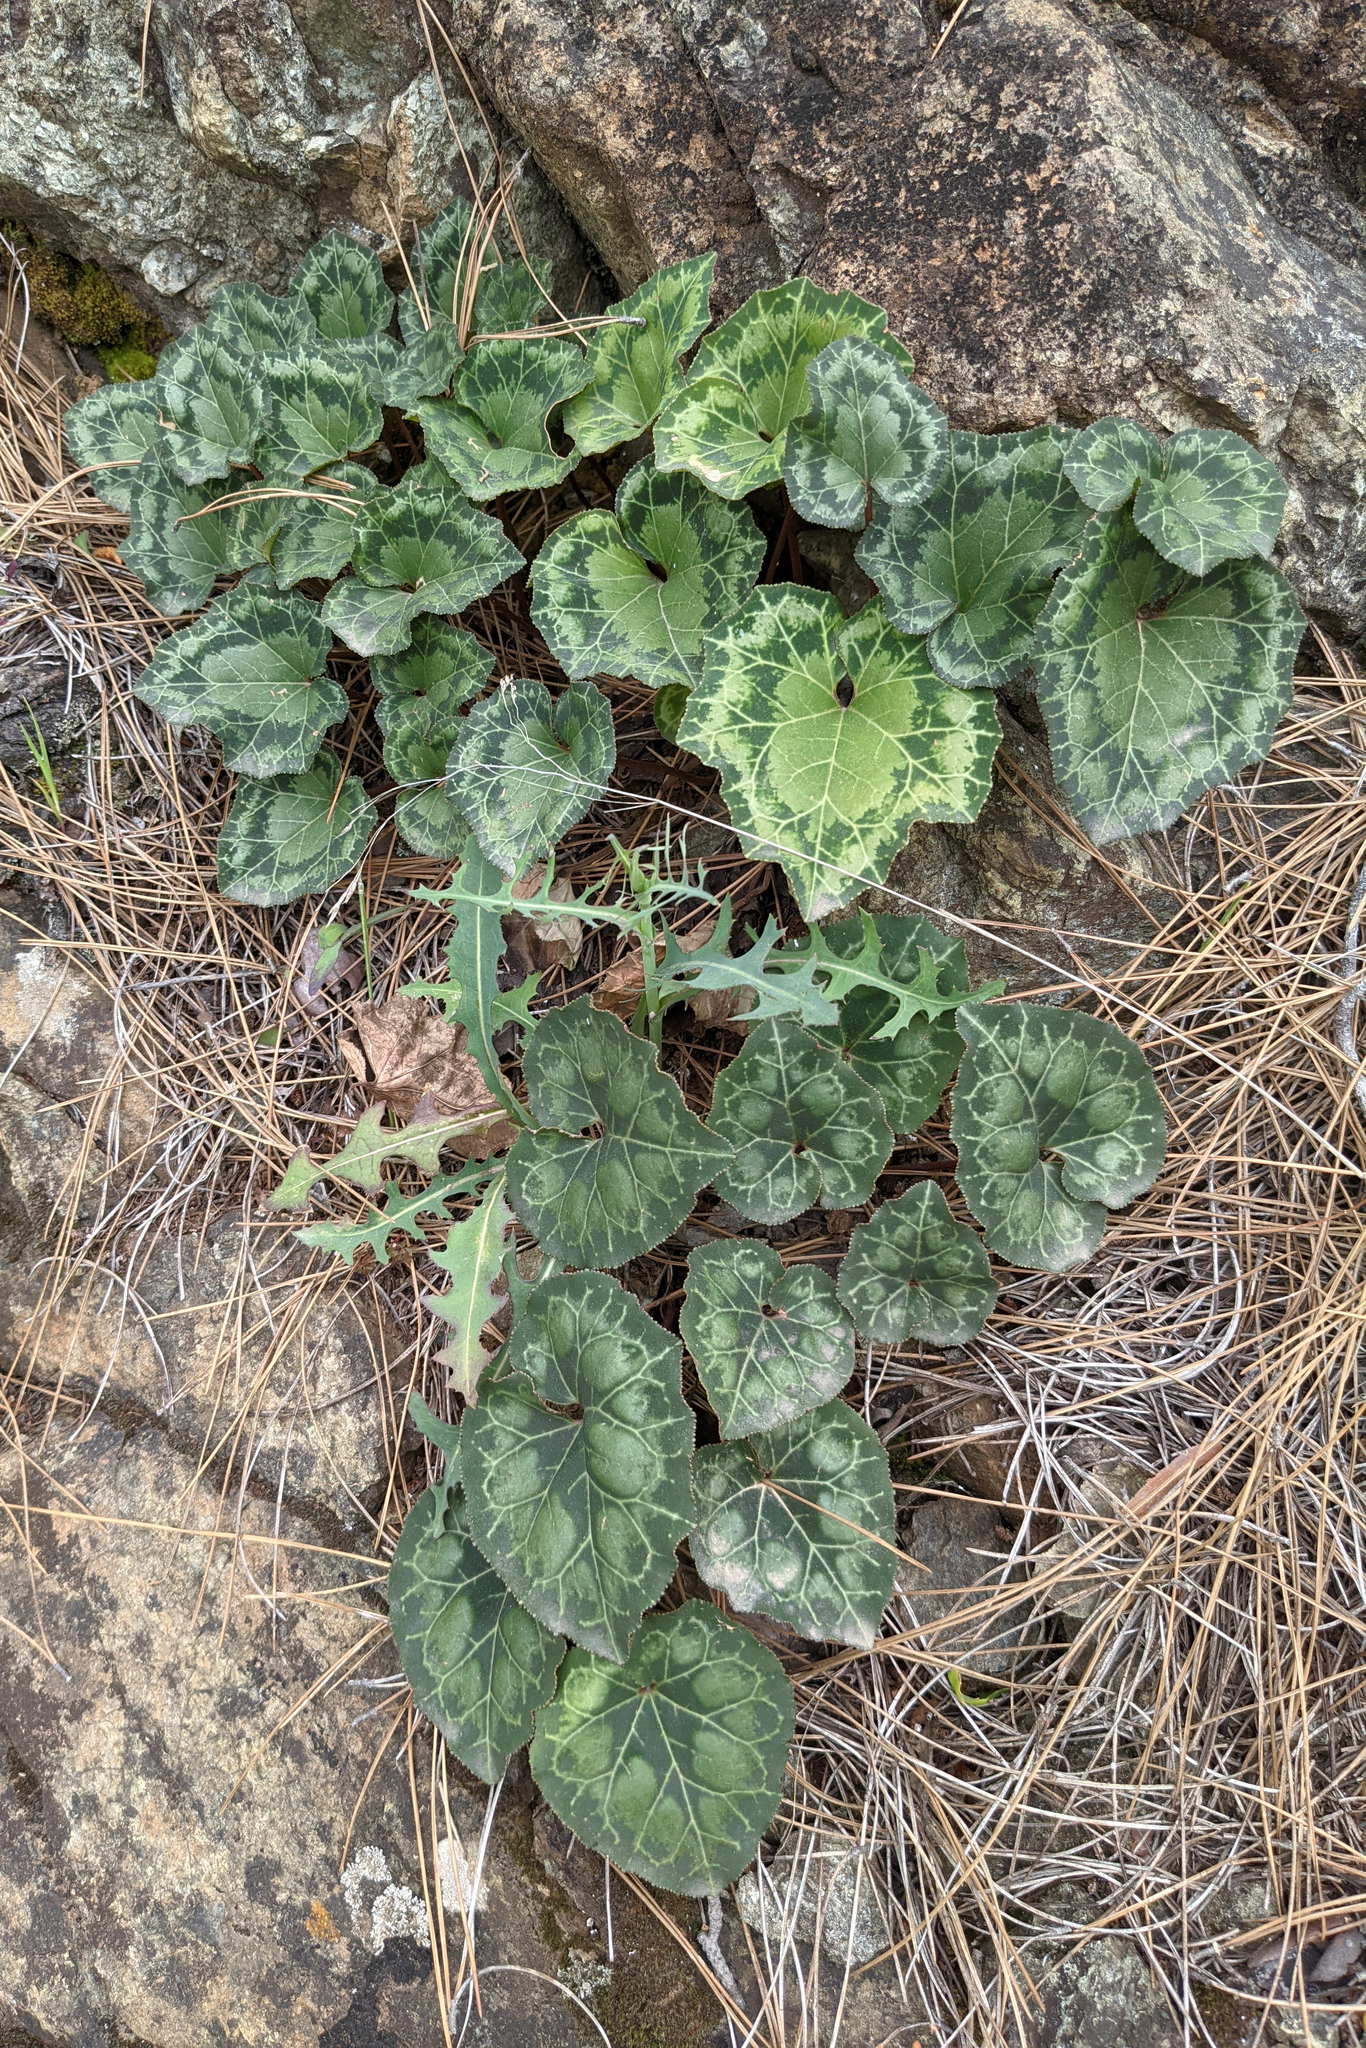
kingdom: Plantae
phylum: Tracheophyta
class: Magnoliopsida
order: Ericales
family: Primulaceae
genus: Cyclamen
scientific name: Cyclamen persicum
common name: Florist's cyclamen
